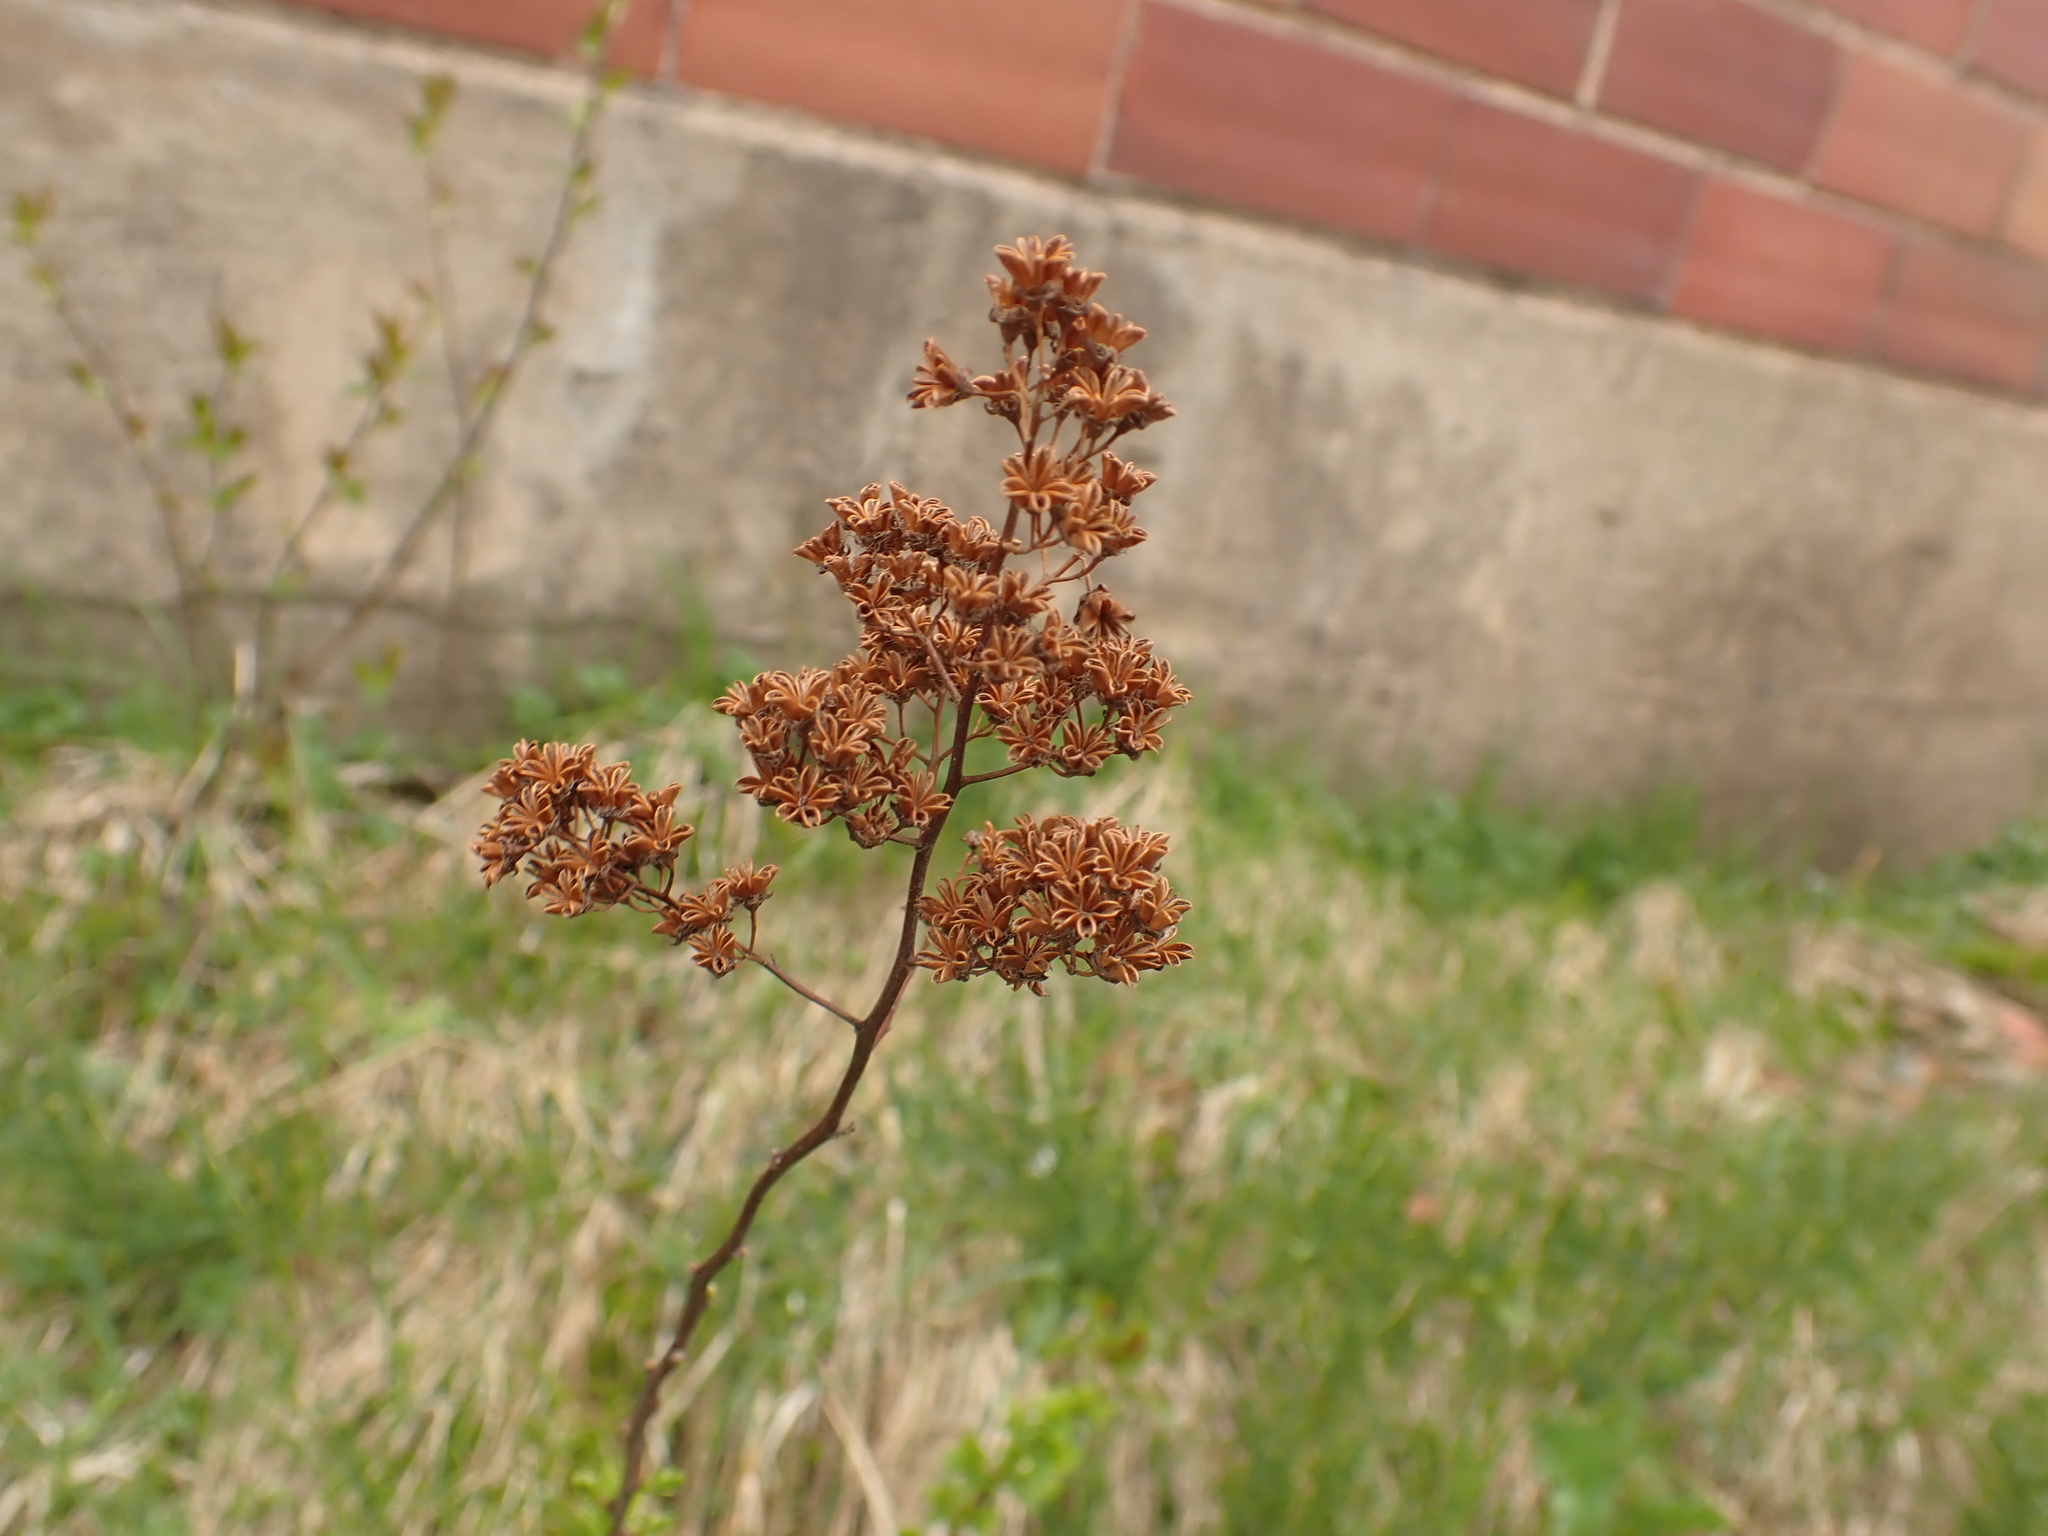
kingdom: Plantae
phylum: Tracheophyta
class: Magnoliopsida
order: Rosales
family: Rosaceae
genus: Spiraea
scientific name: Spiraea alba
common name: Pale bridewort
